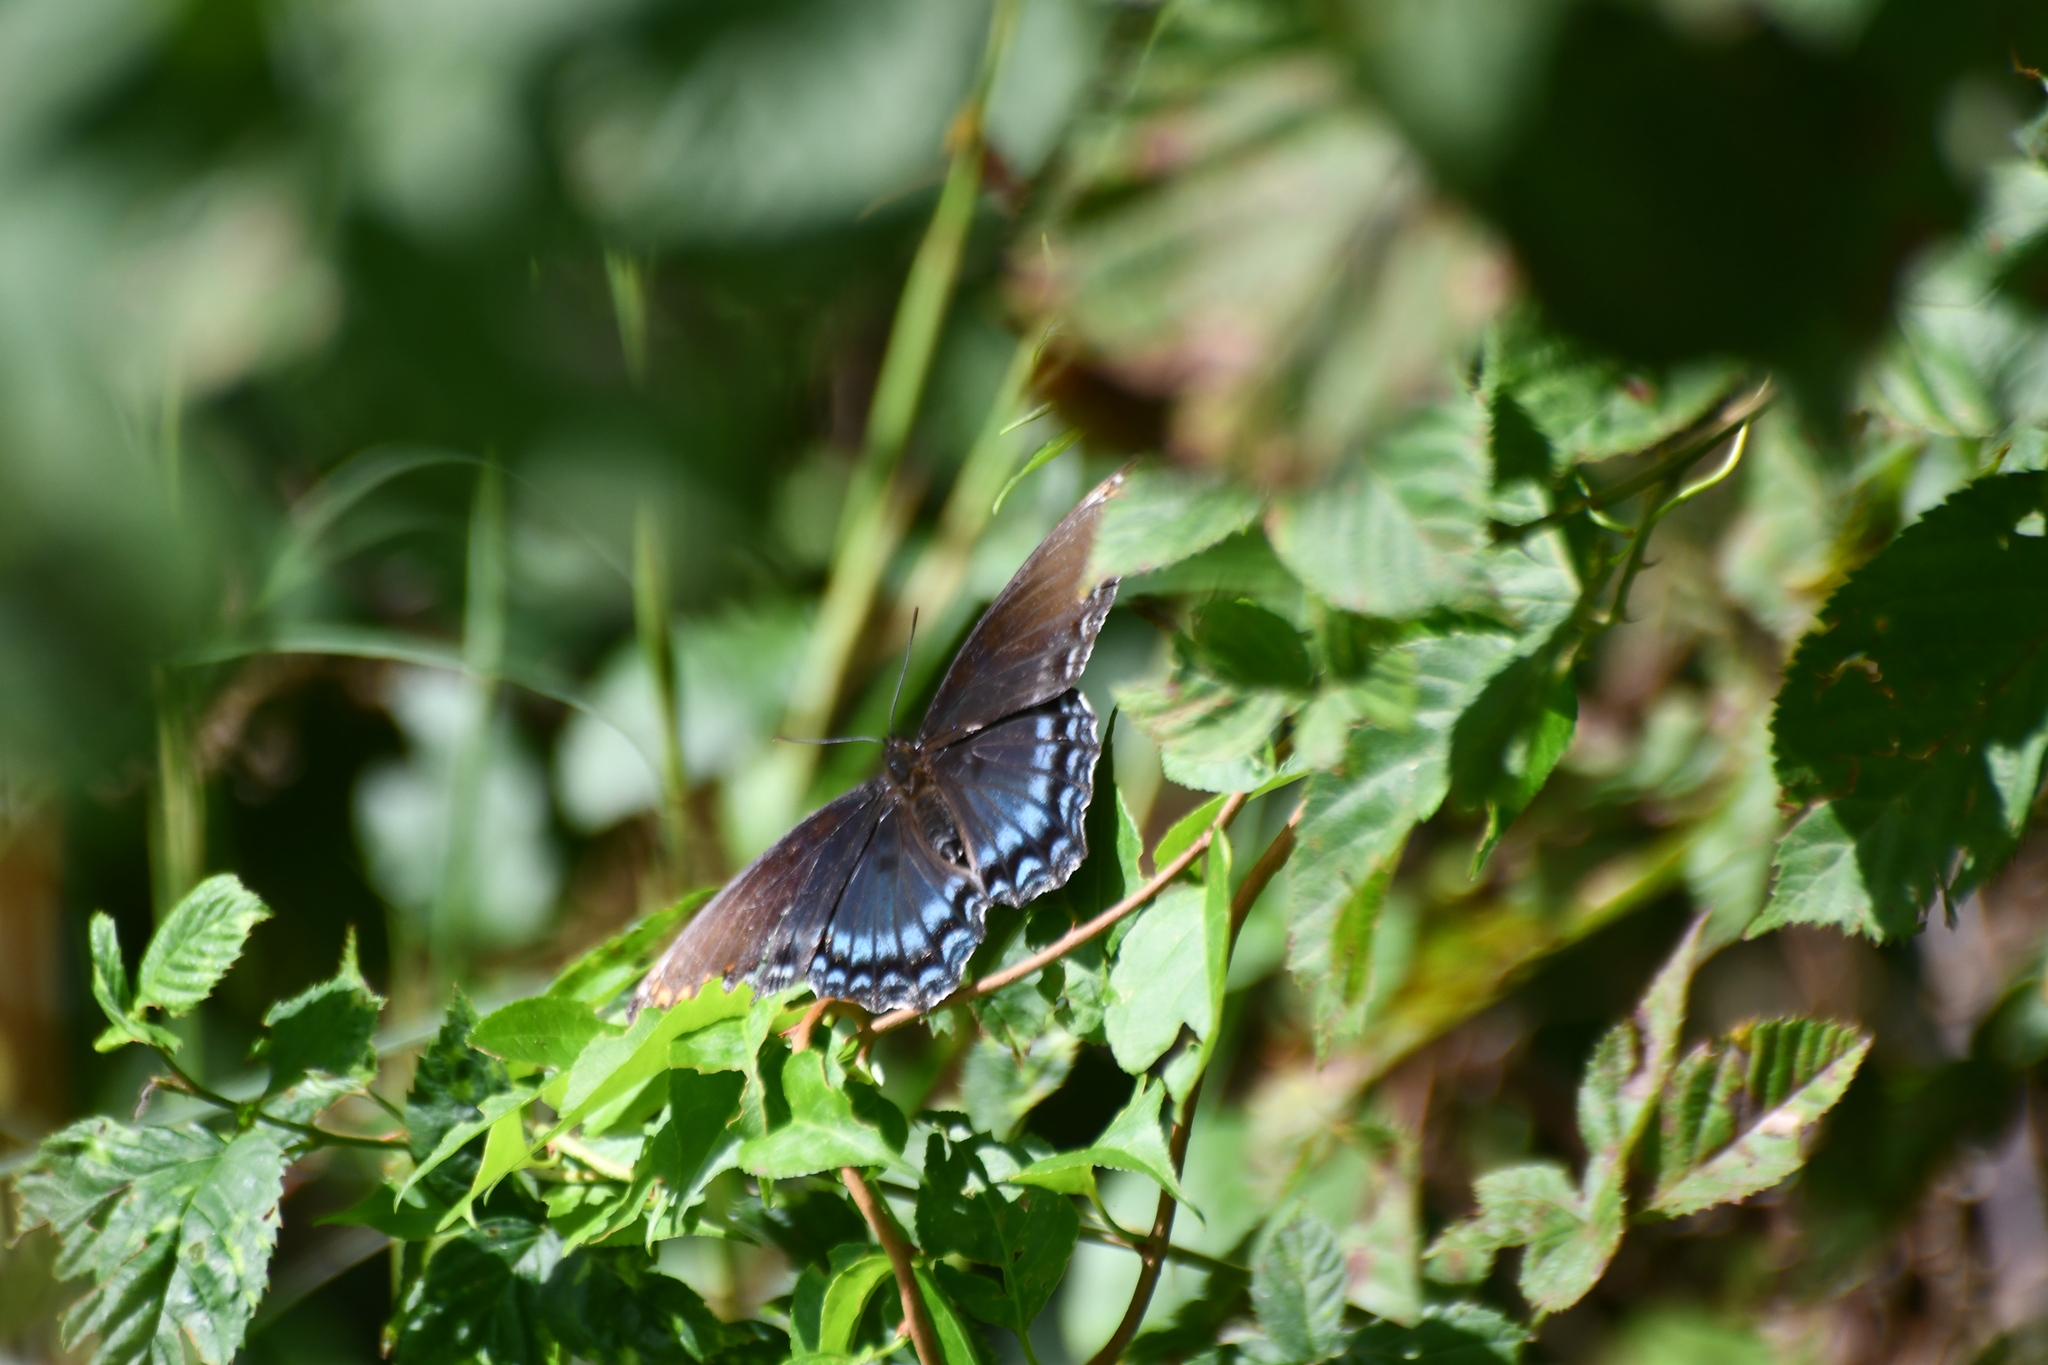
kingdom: Animalia
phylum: Arthropoda
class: Insecta
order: Lepidoptera
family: Nymphalidae
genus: Limenitis
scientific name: Limenitis astyanax
